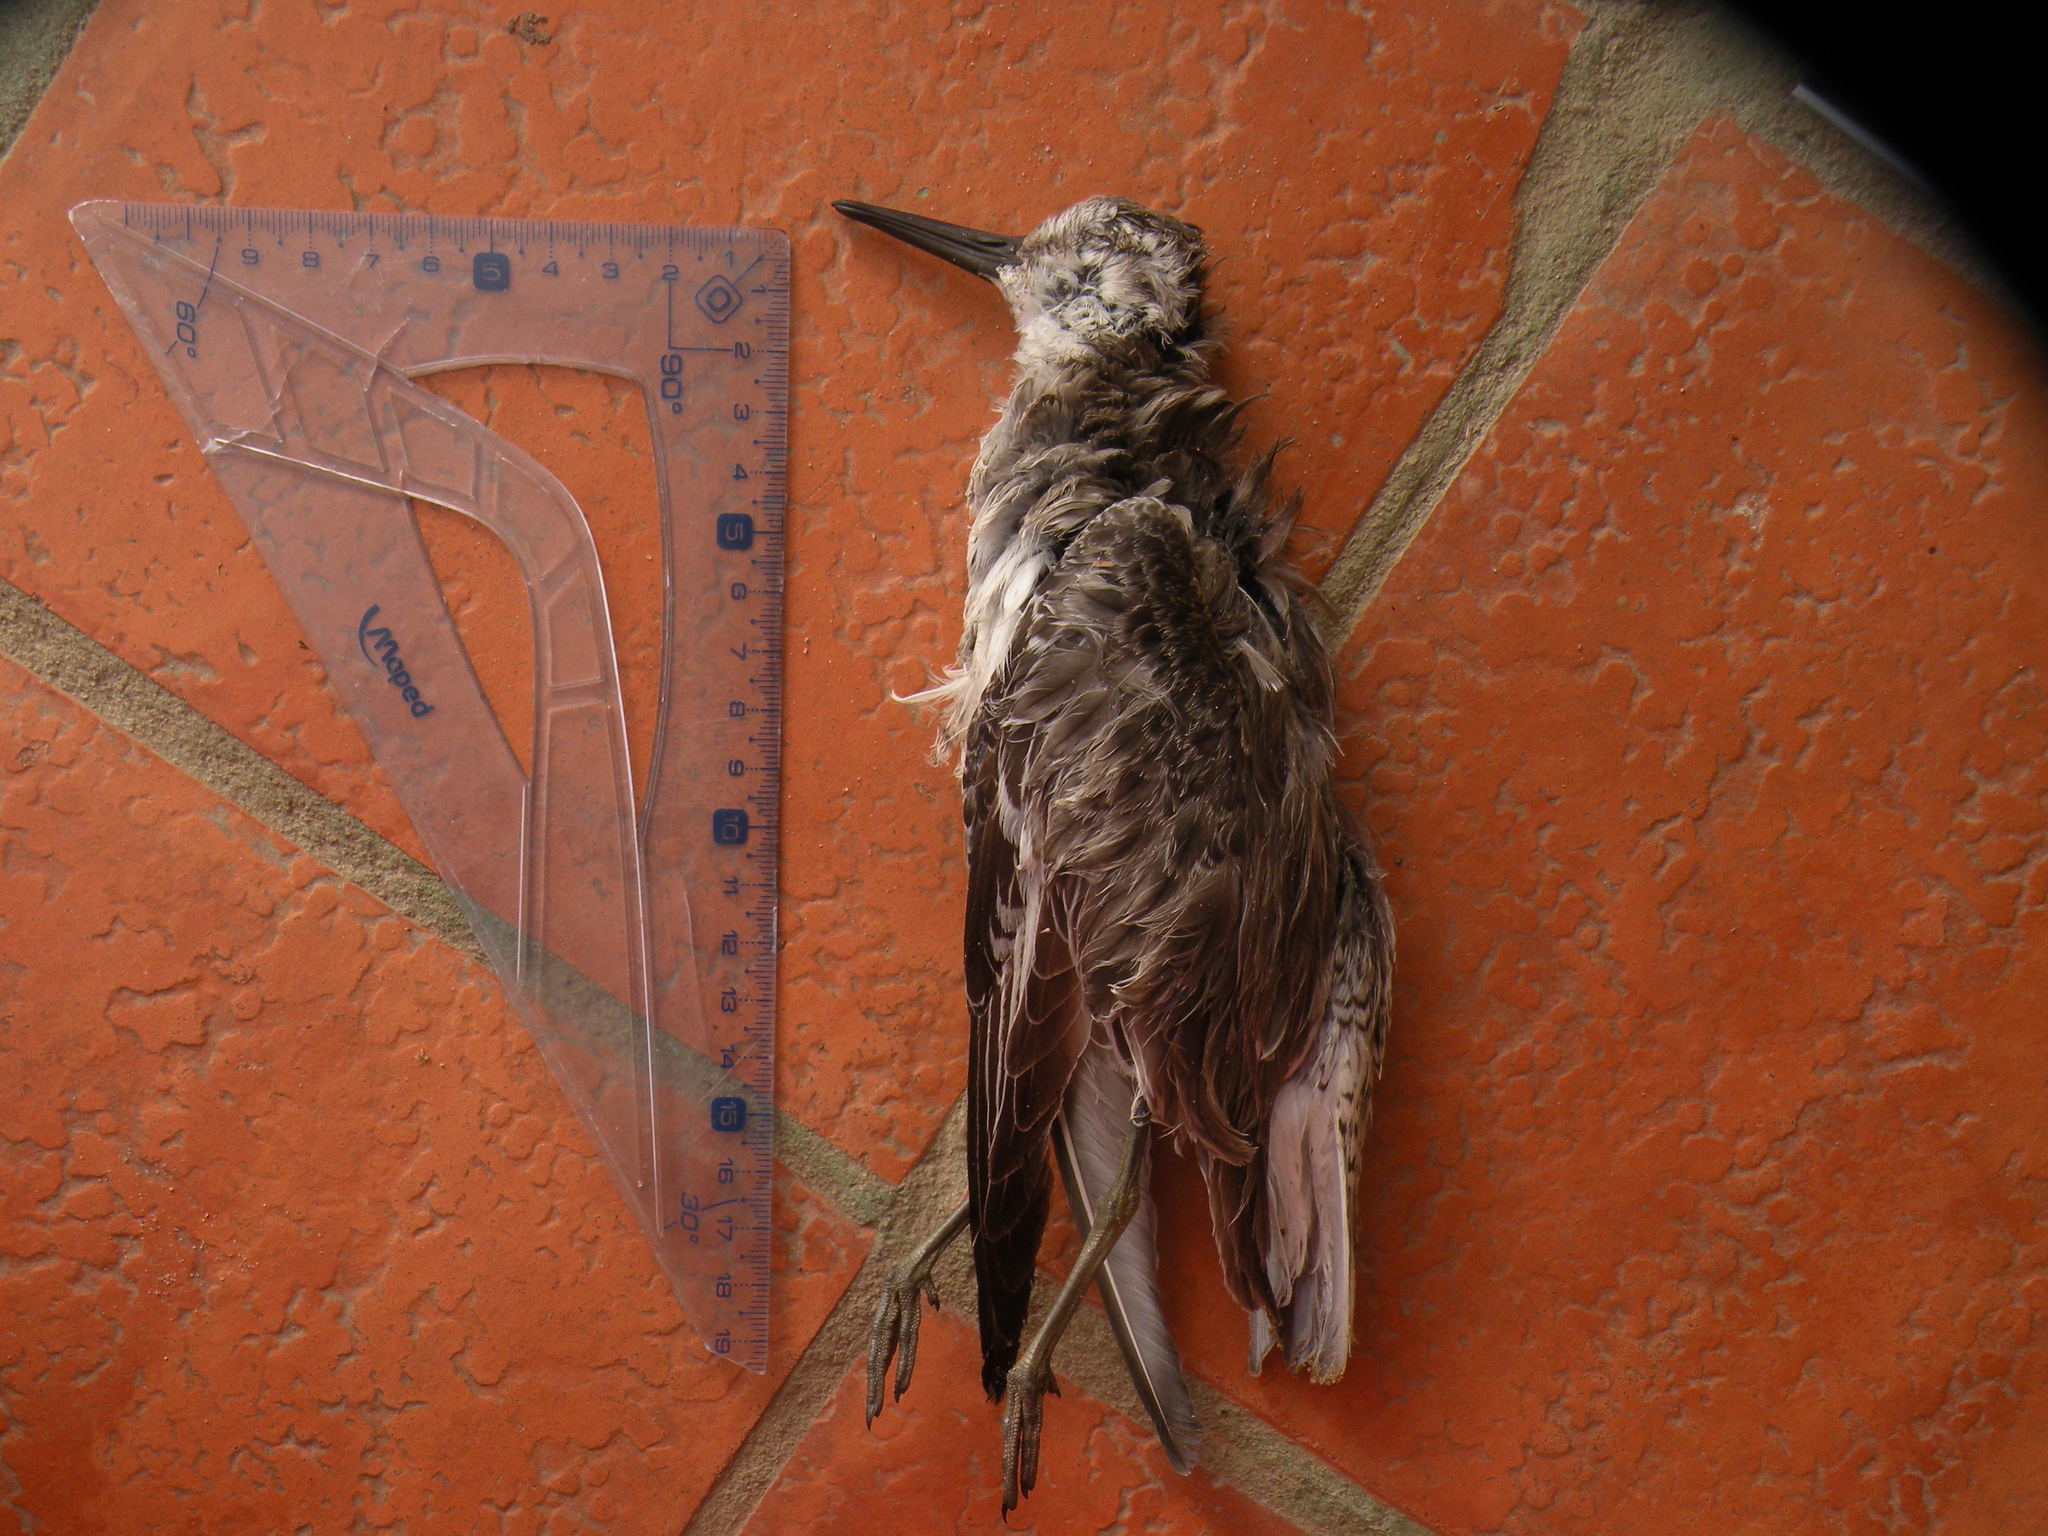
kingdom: Animalia
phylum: Chordata
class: Aves
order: Charadriiformes
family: Scolopacidae
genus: Calidris
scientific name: Calidris canutus
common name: Red knot
